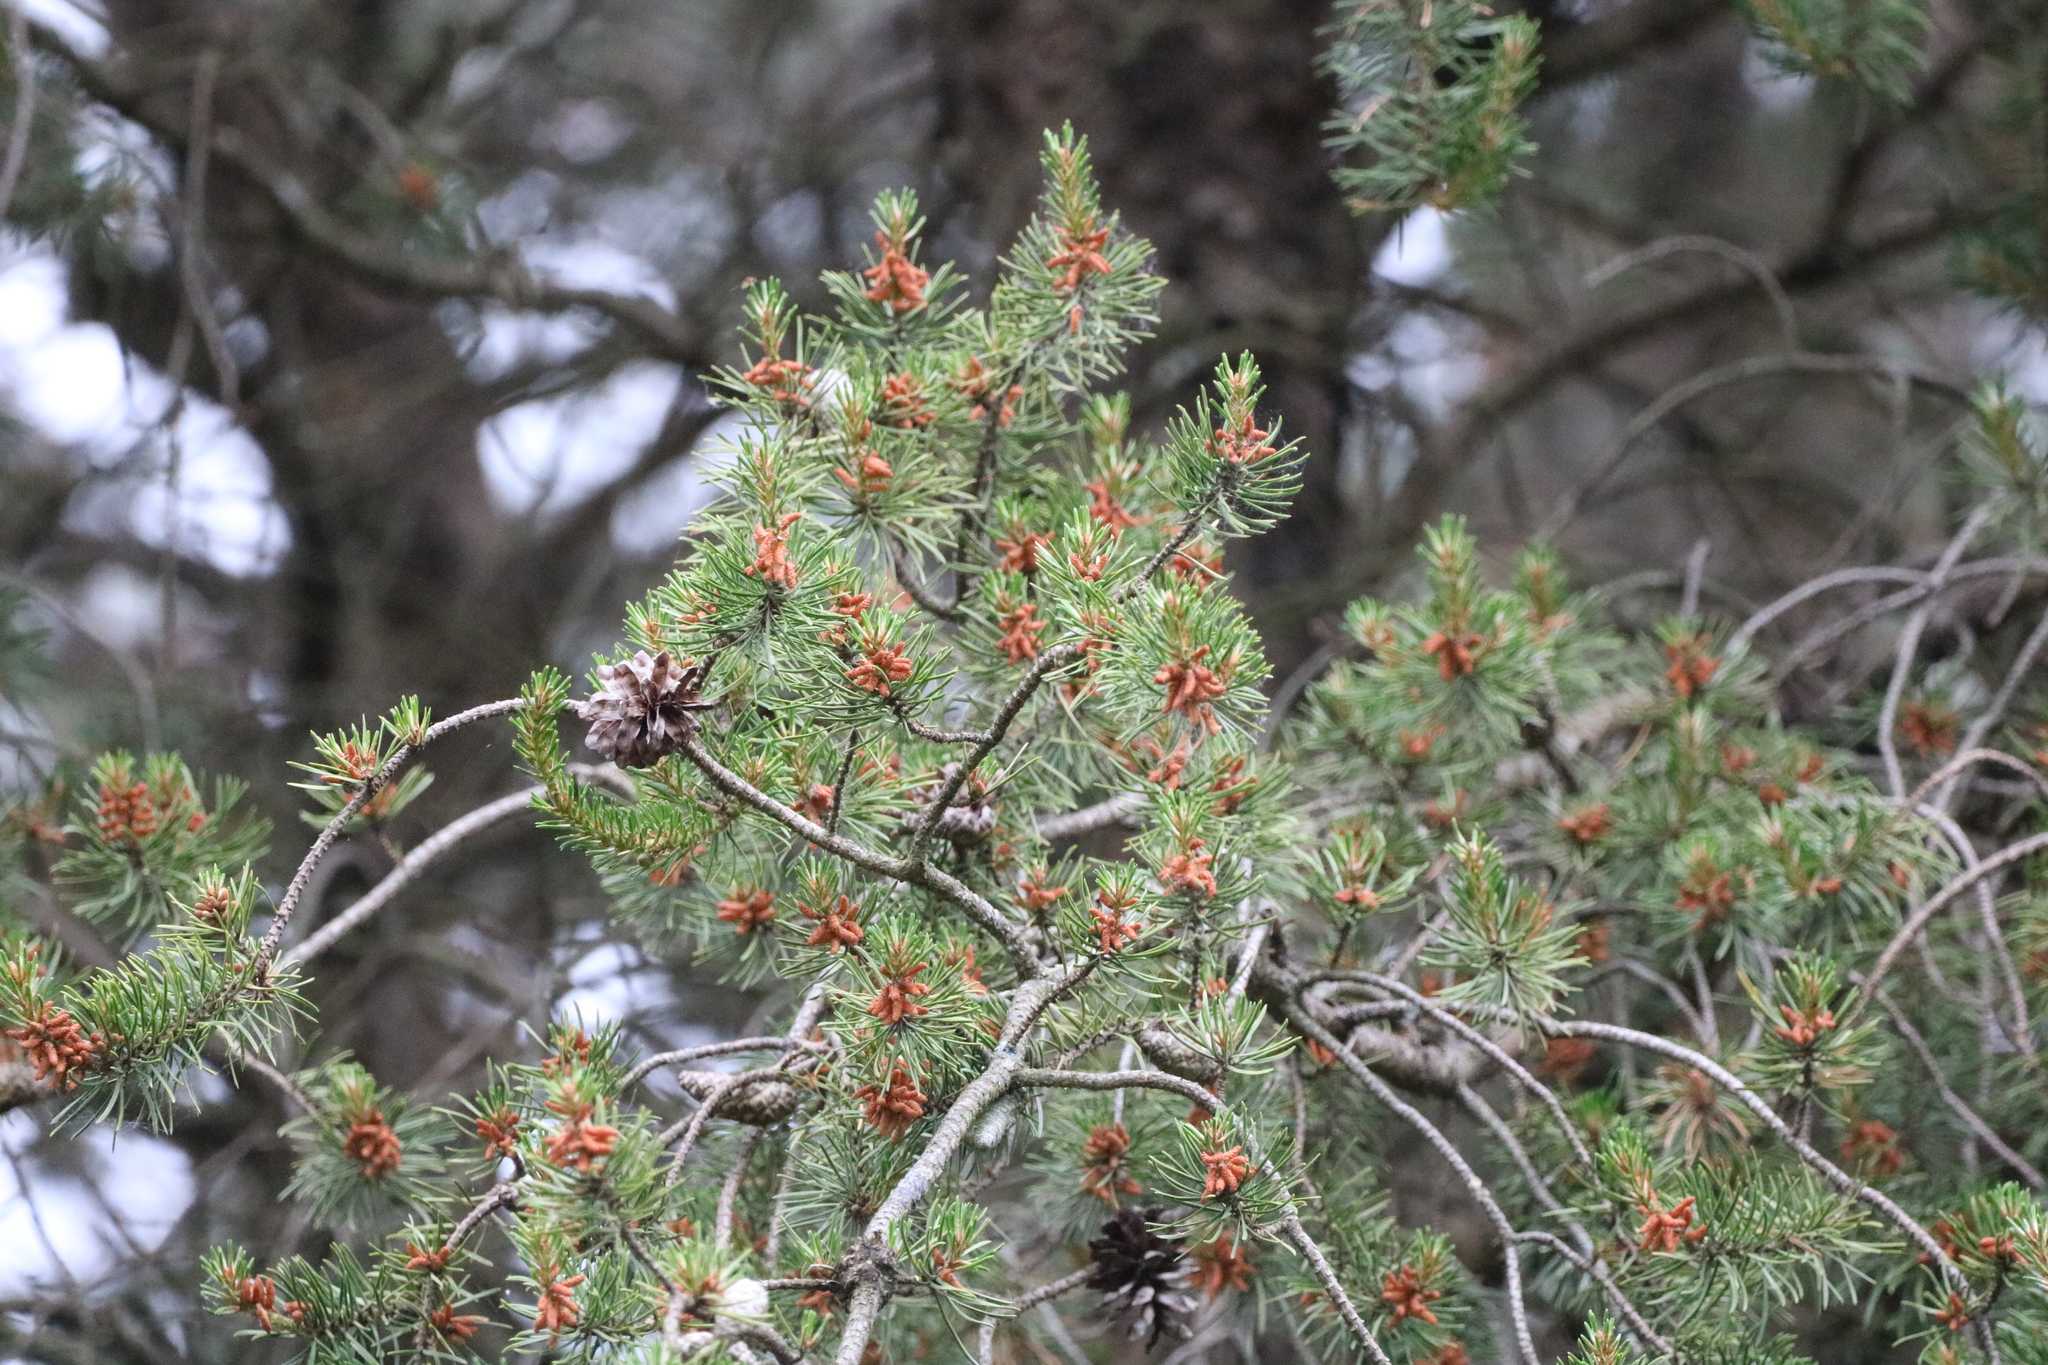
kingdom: Plantae
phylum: Tracheophyta
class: Pinopsida
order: Pinales
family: Pinaceae
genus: Pinus
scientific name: Pinus banksiana
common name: Jack pine
